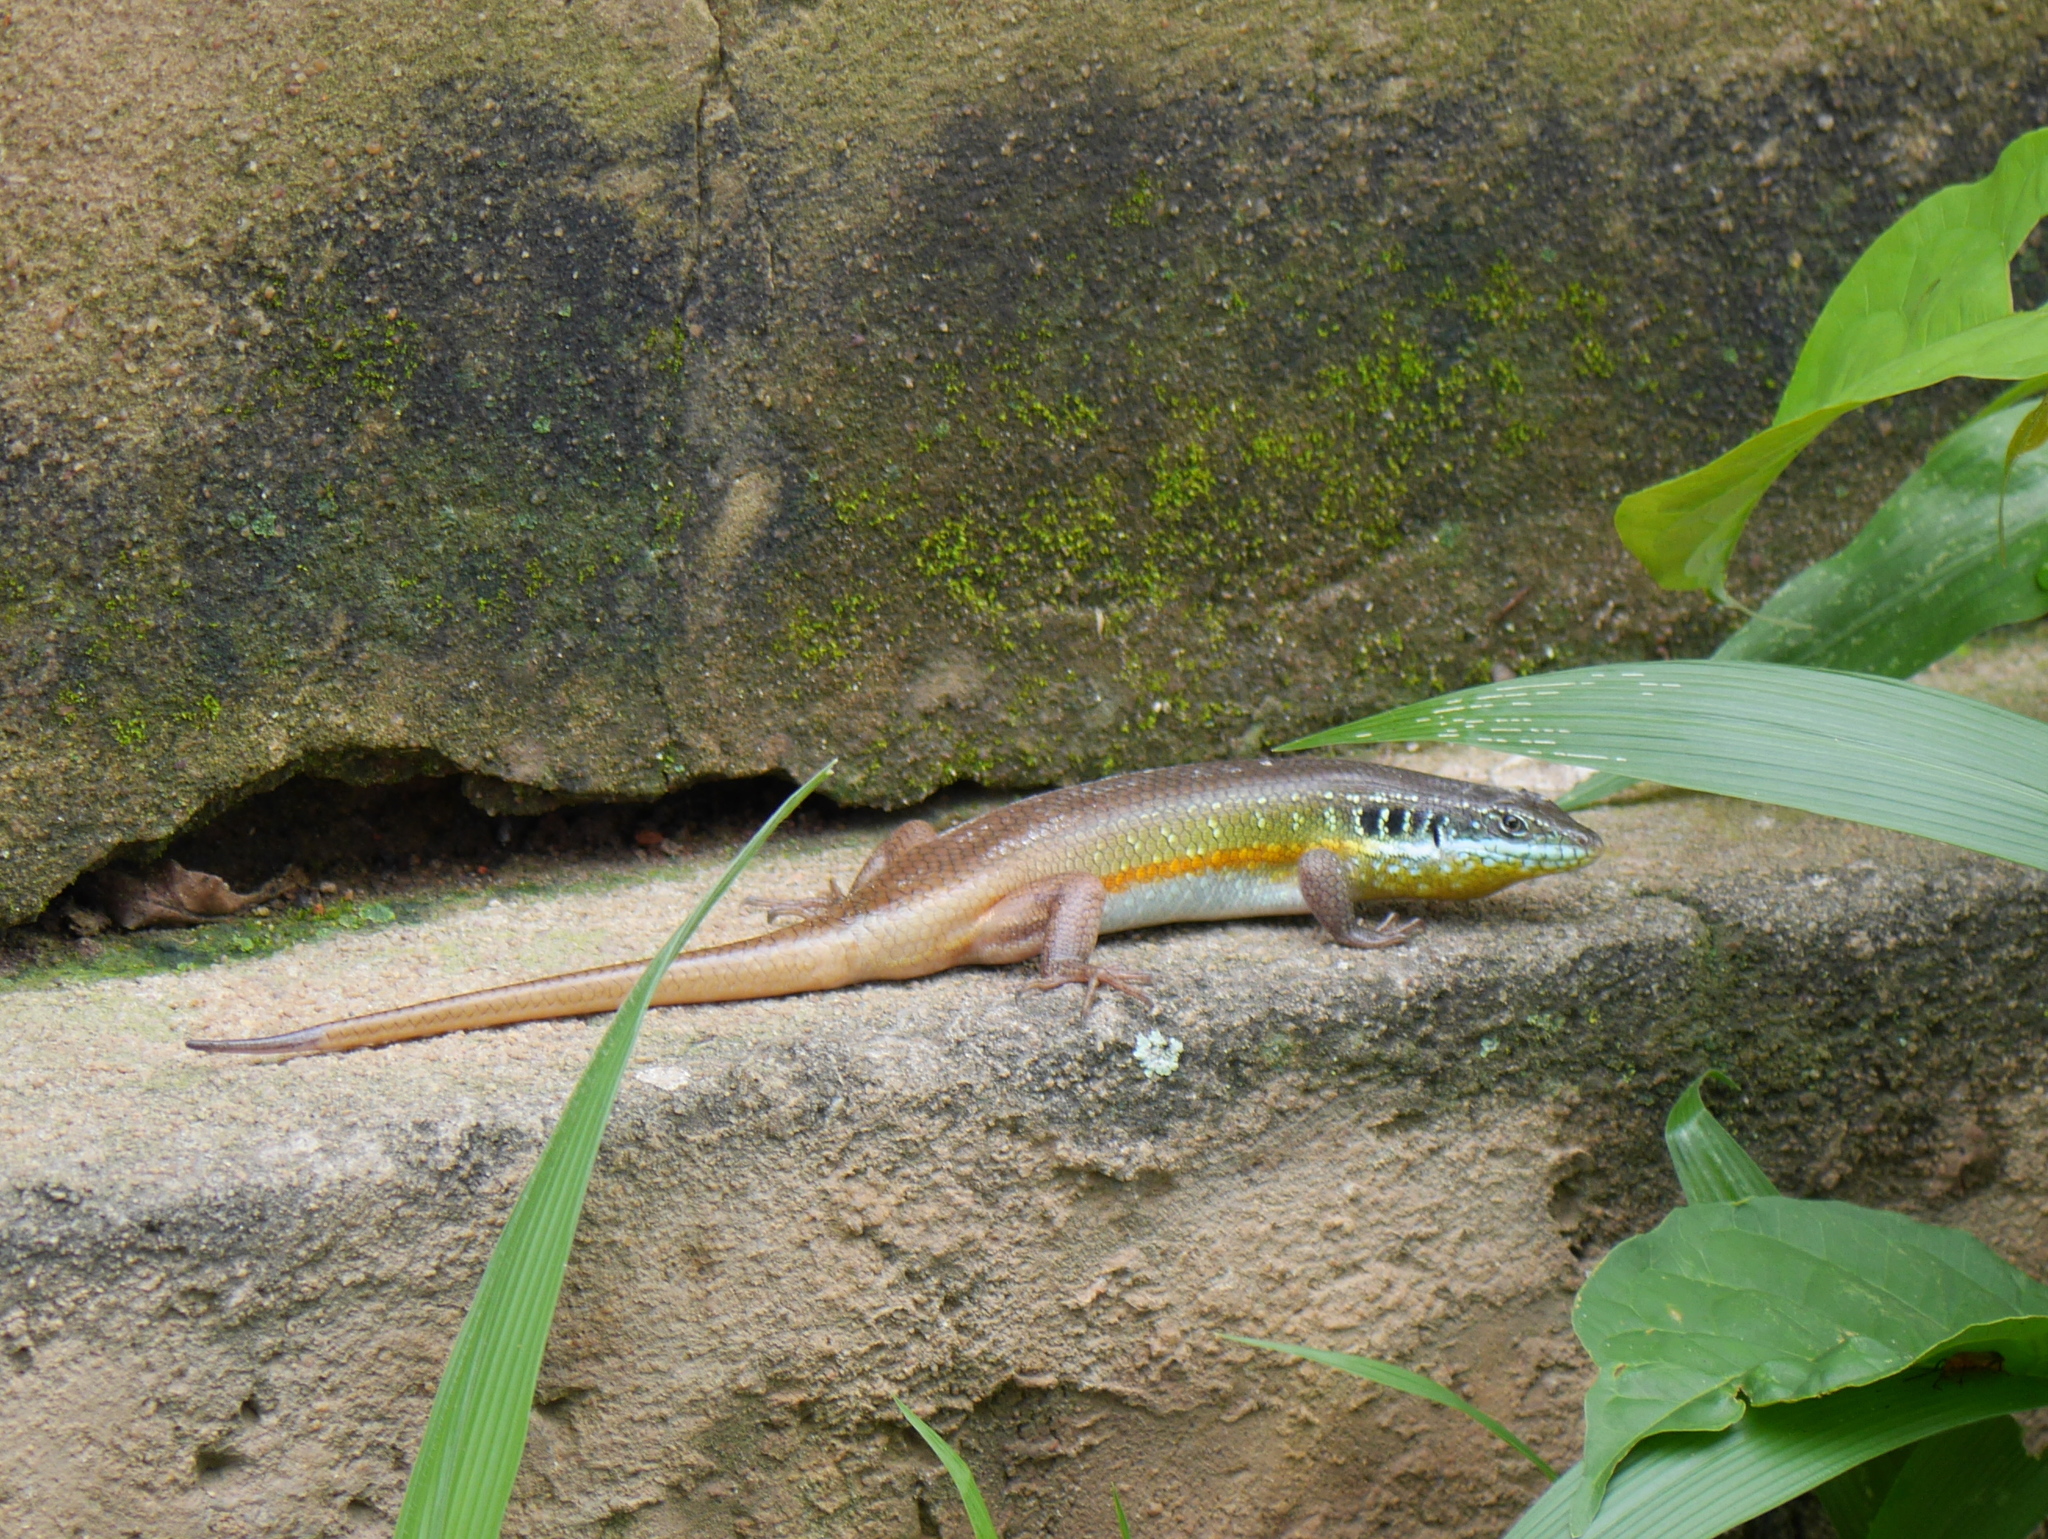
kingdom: Animalia
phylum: Chordata
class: Squamata
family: Scincidae
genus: Trachylepis
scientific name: Trachylepis quinquetaeniata
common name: African five-lined skink
